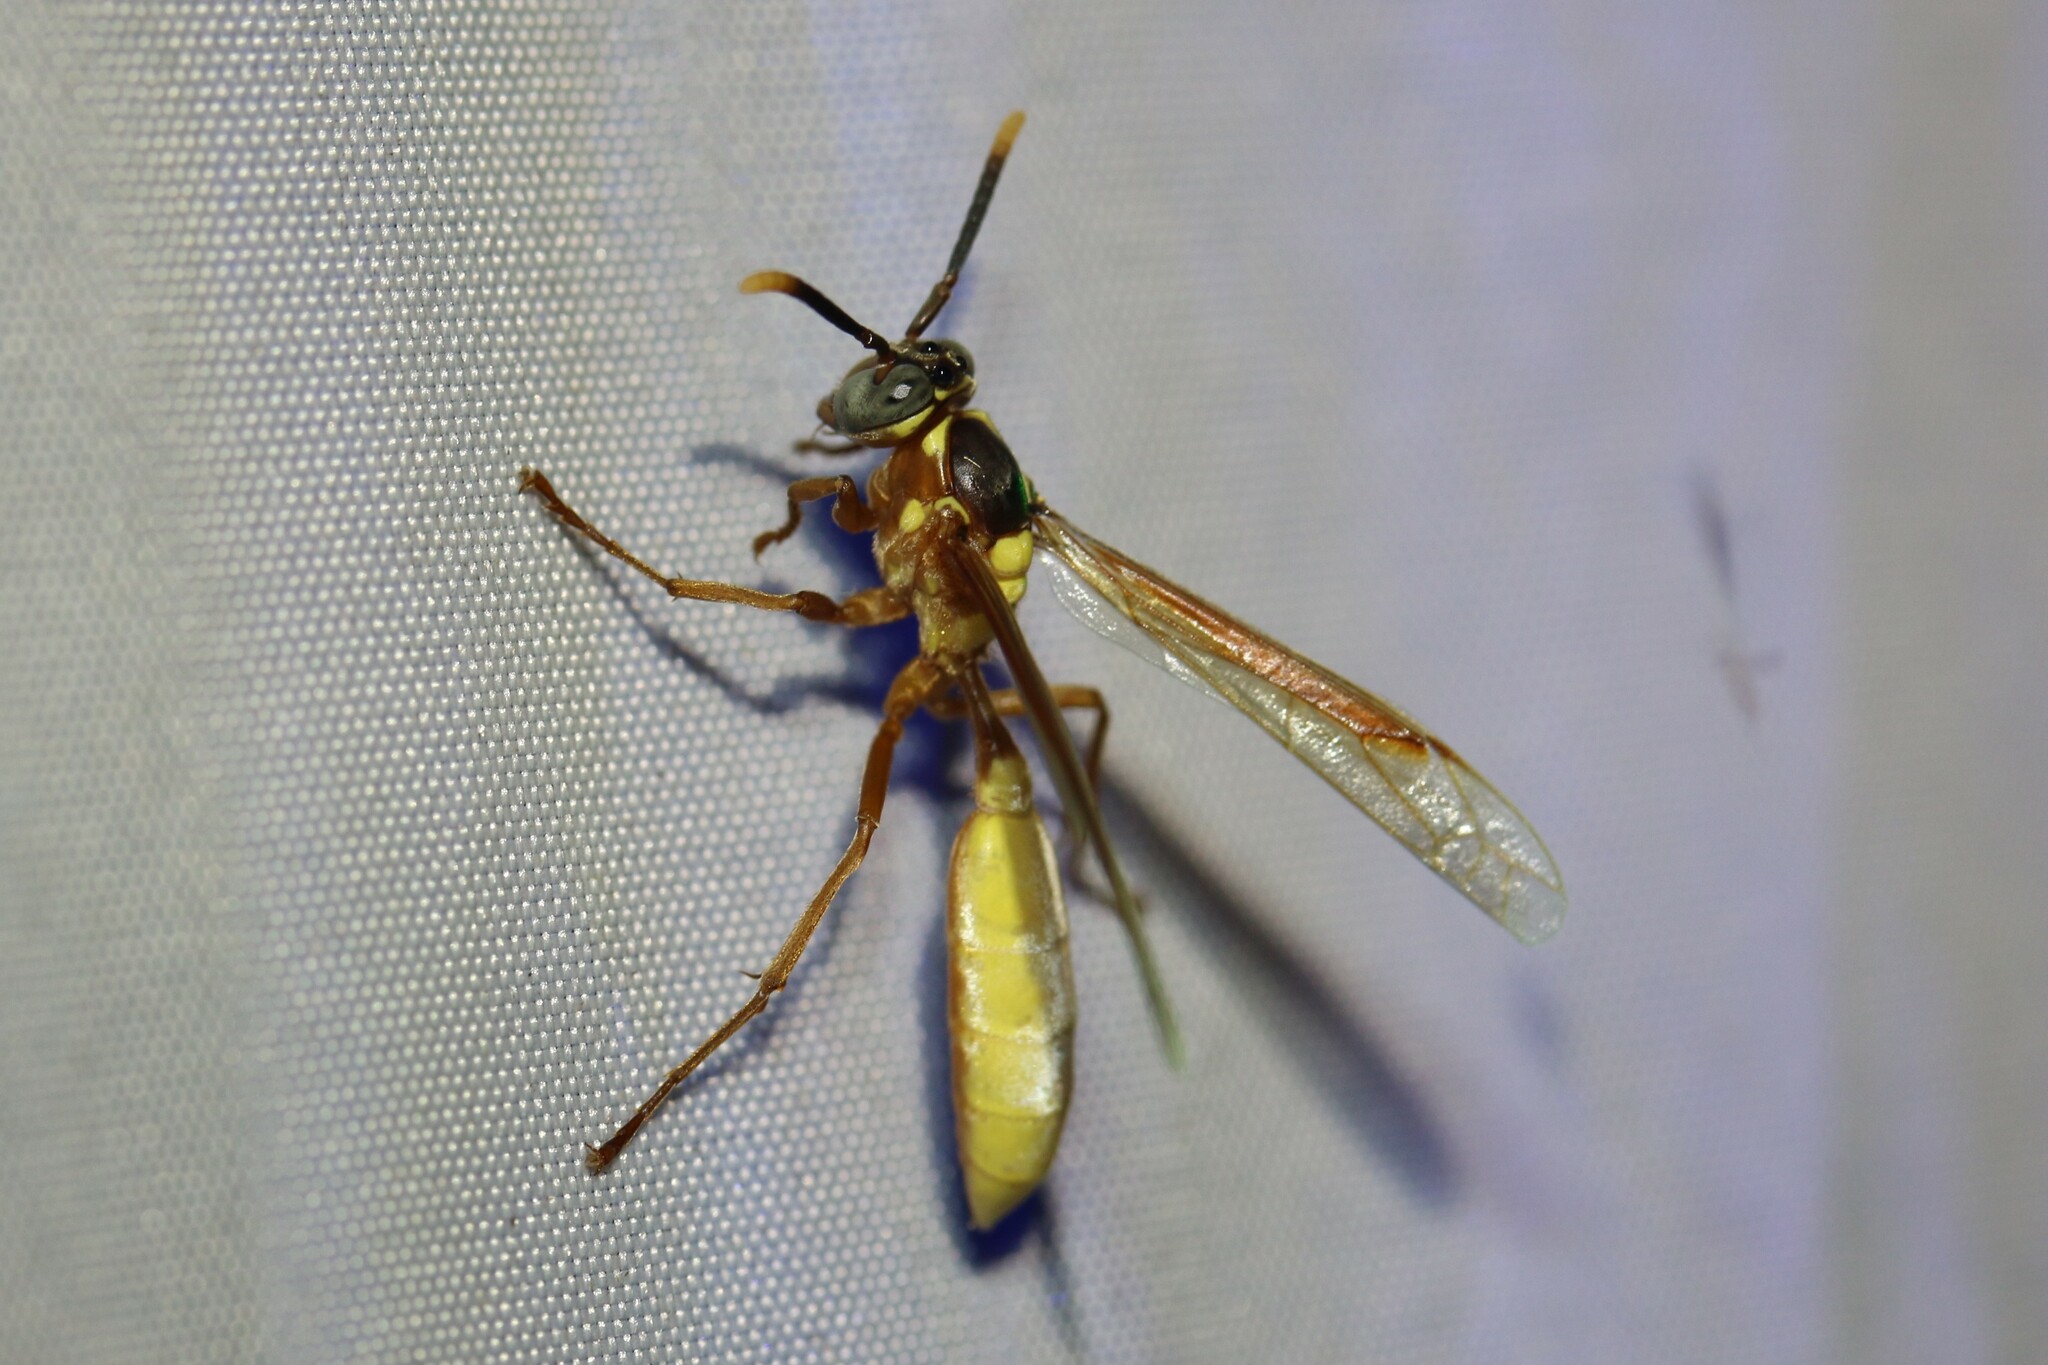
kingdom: Animalia
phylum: Arthropoda
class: Insecta
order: Hymenoptera
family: Vespidae
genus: Apoica
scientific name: Apoica pallens
